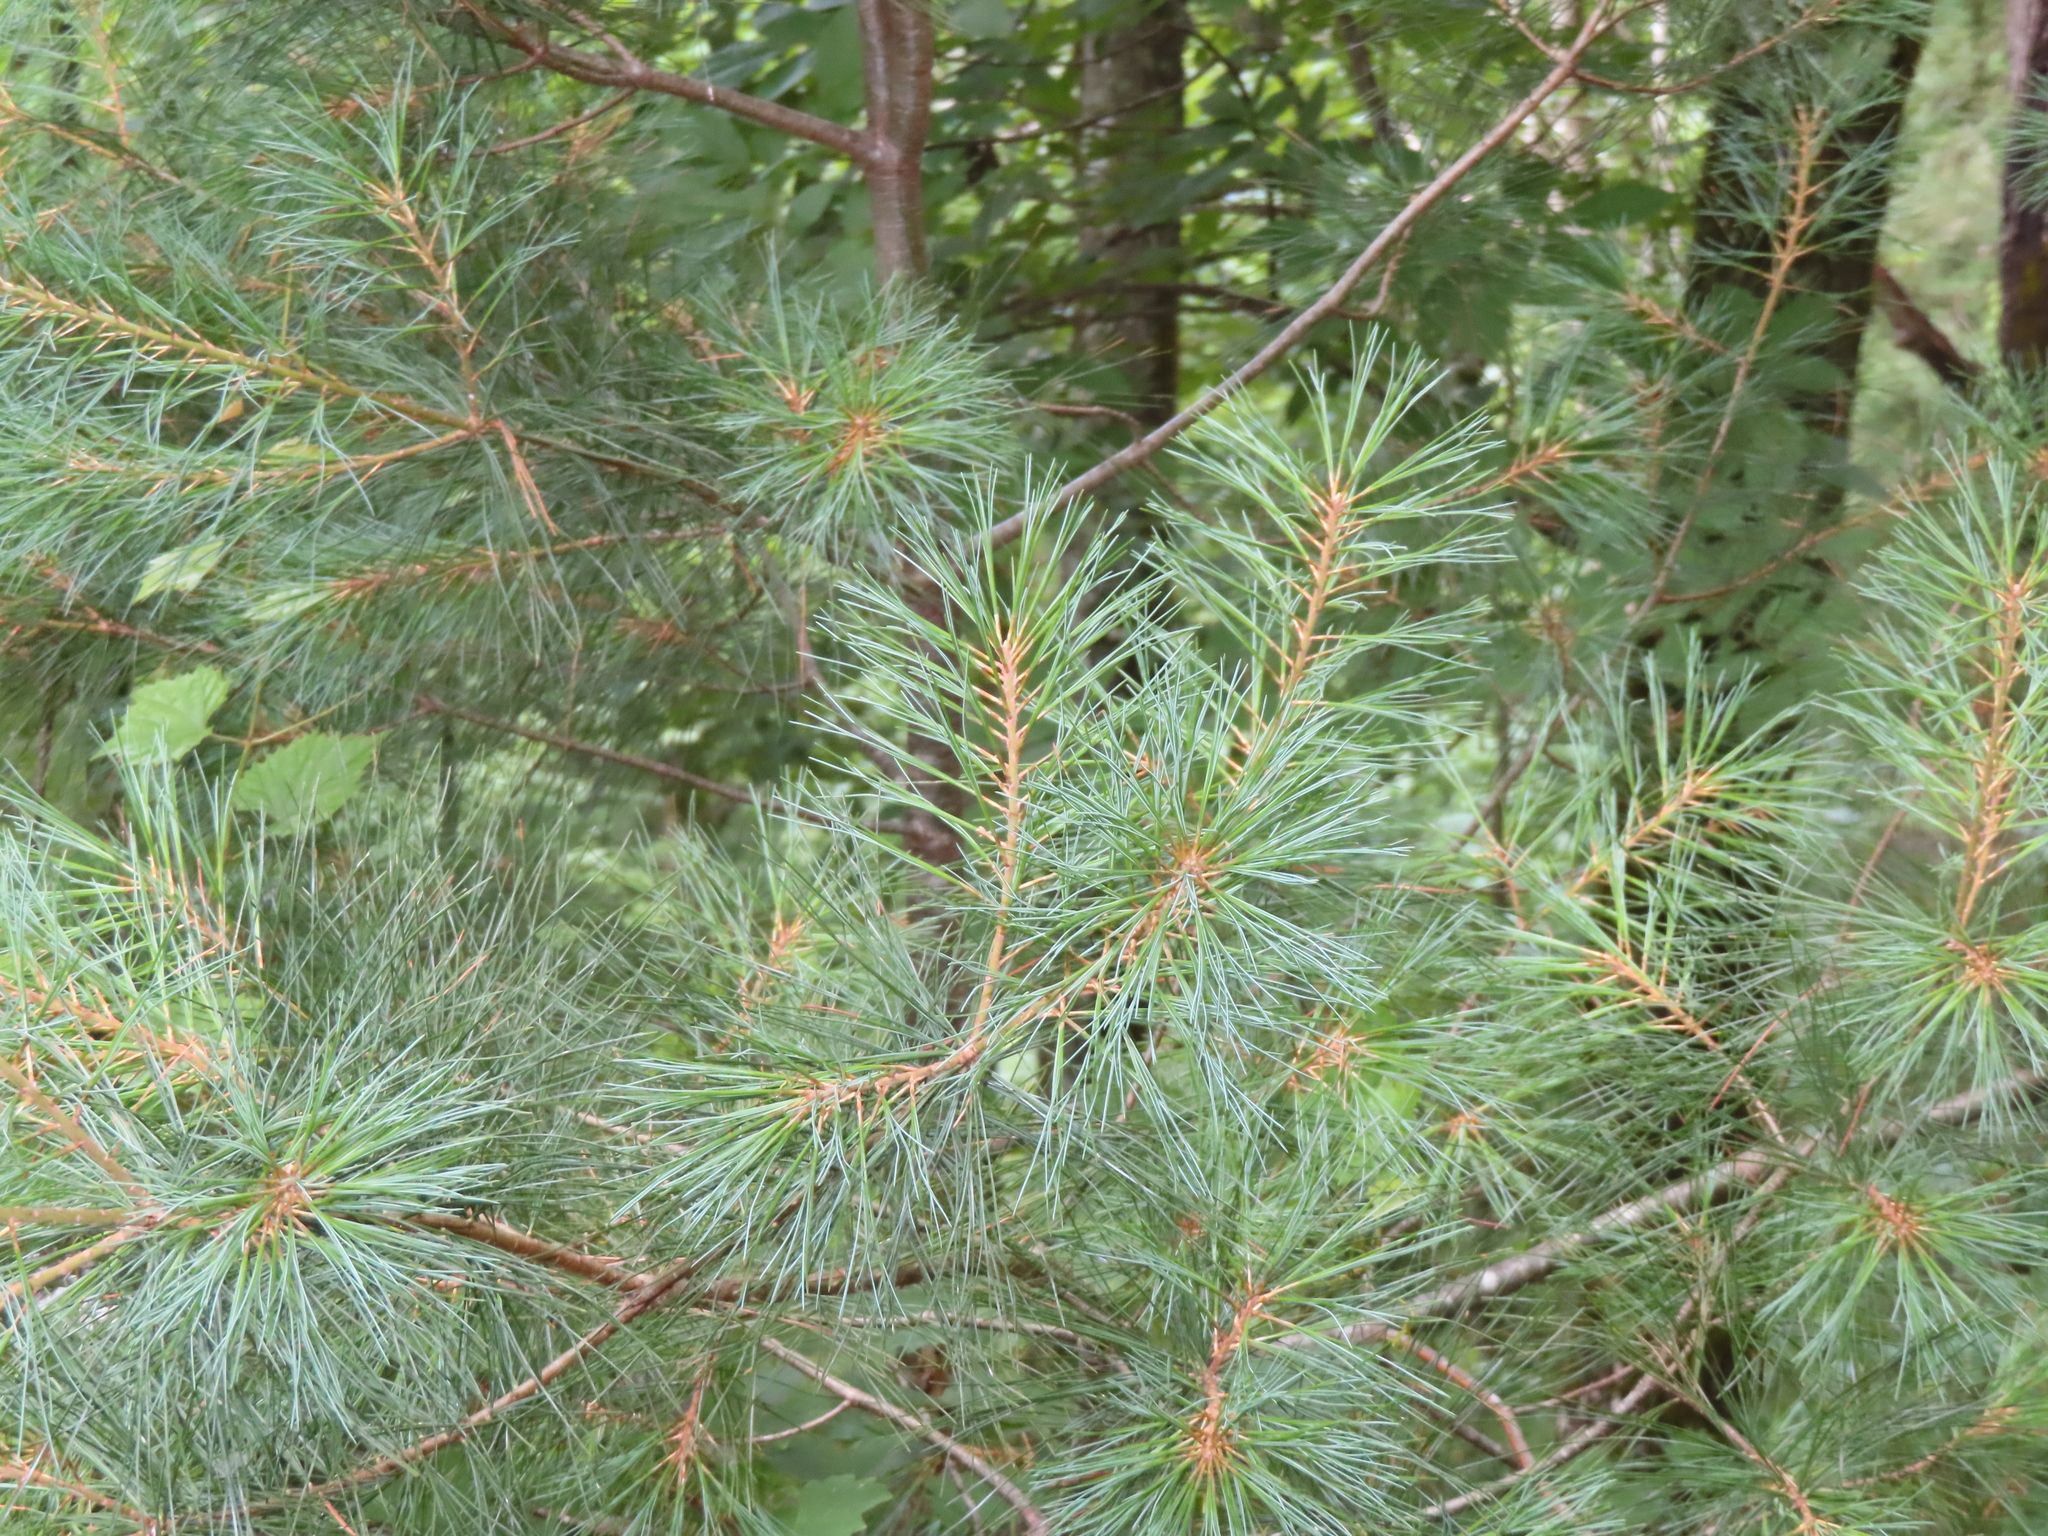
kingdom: Plantae
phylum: Tracheophyta
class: Pinopsida
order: Pinales
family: Pinaceae
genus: Pinus
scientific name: Pinus strobus
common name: Weymouth pine
